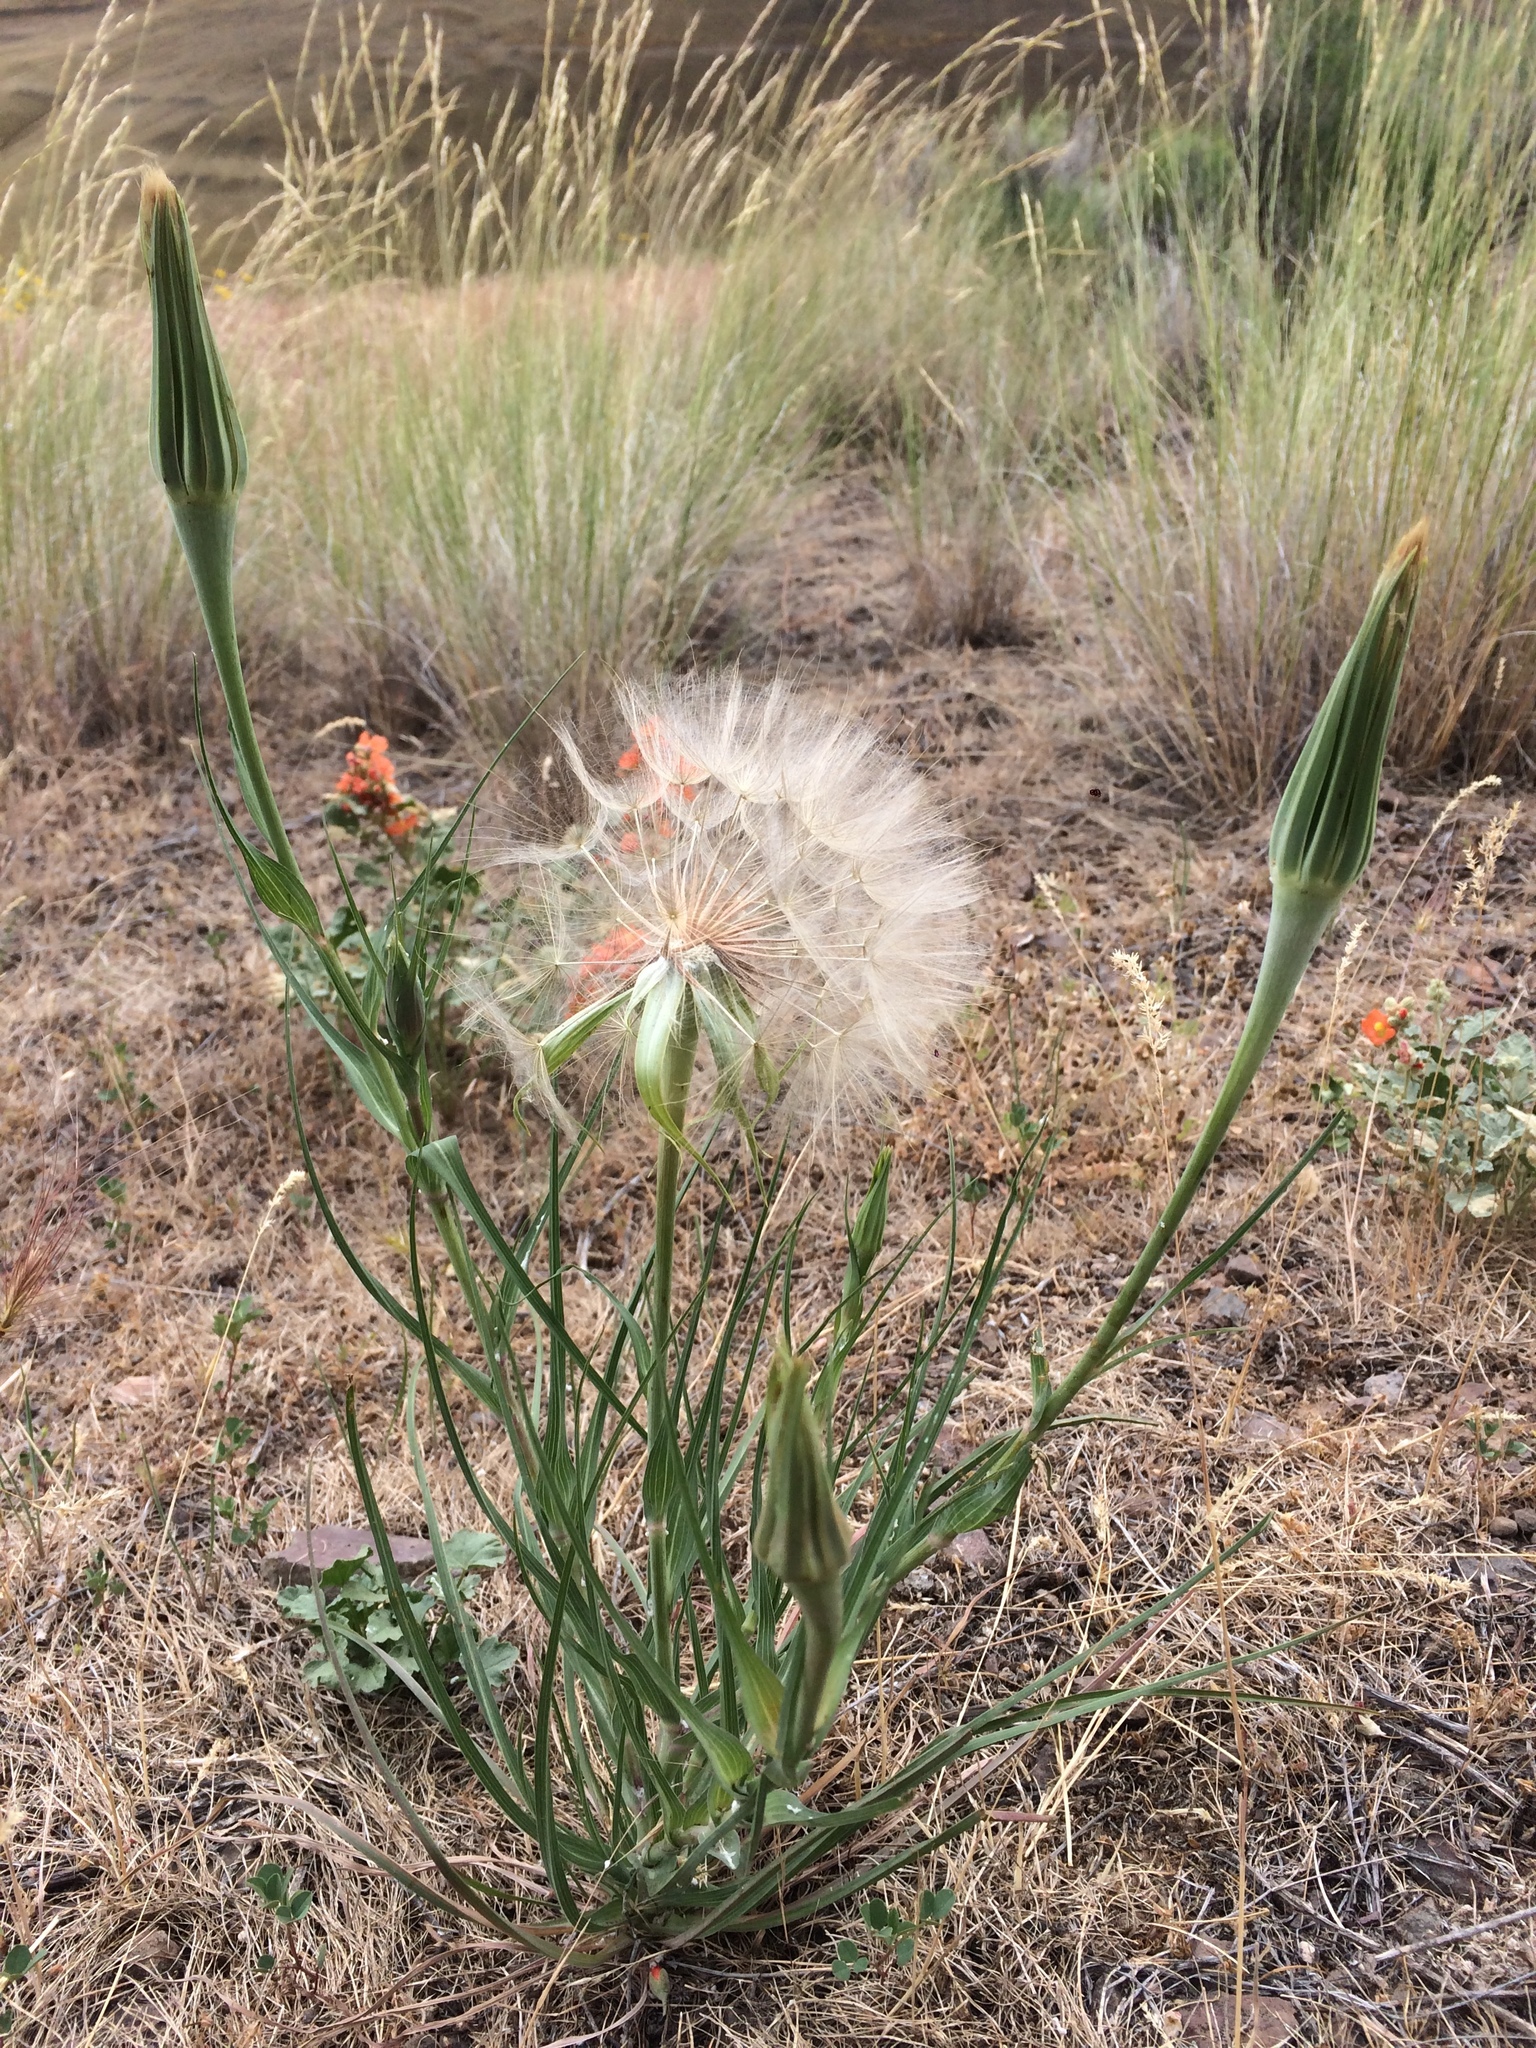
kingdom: Plantae
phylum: Tracheophyta
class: Magnoliopsida
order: Asterales
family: Asteraceae
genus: Tragopogon
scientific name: Tragopogon dubius
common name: Yellow salsify
